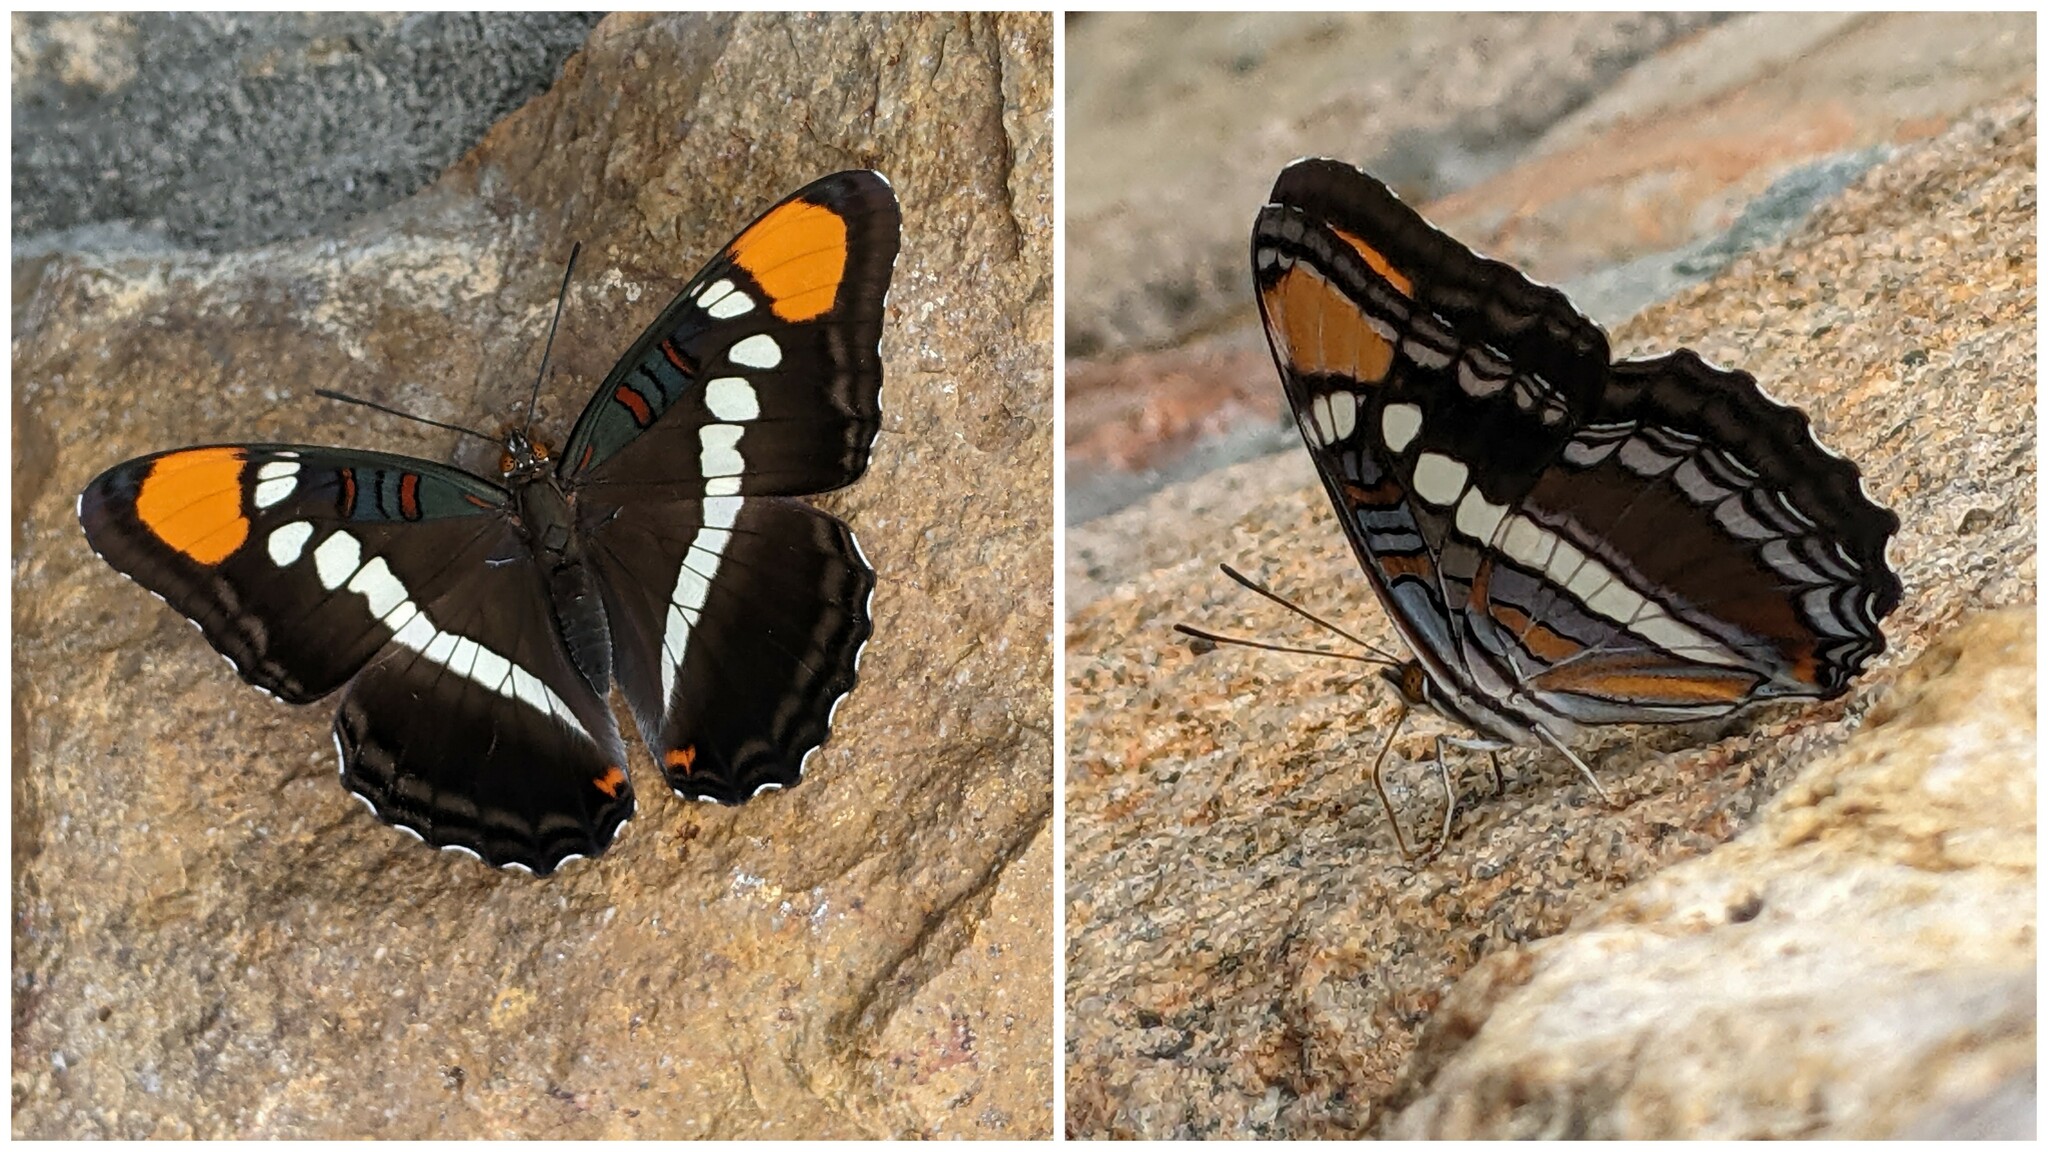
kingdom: Animalia
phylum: Arthropoda
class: Insecta
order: Lepidoptera
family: Nymphalidae
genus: Limenitis
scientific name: Limenitis bredowii
